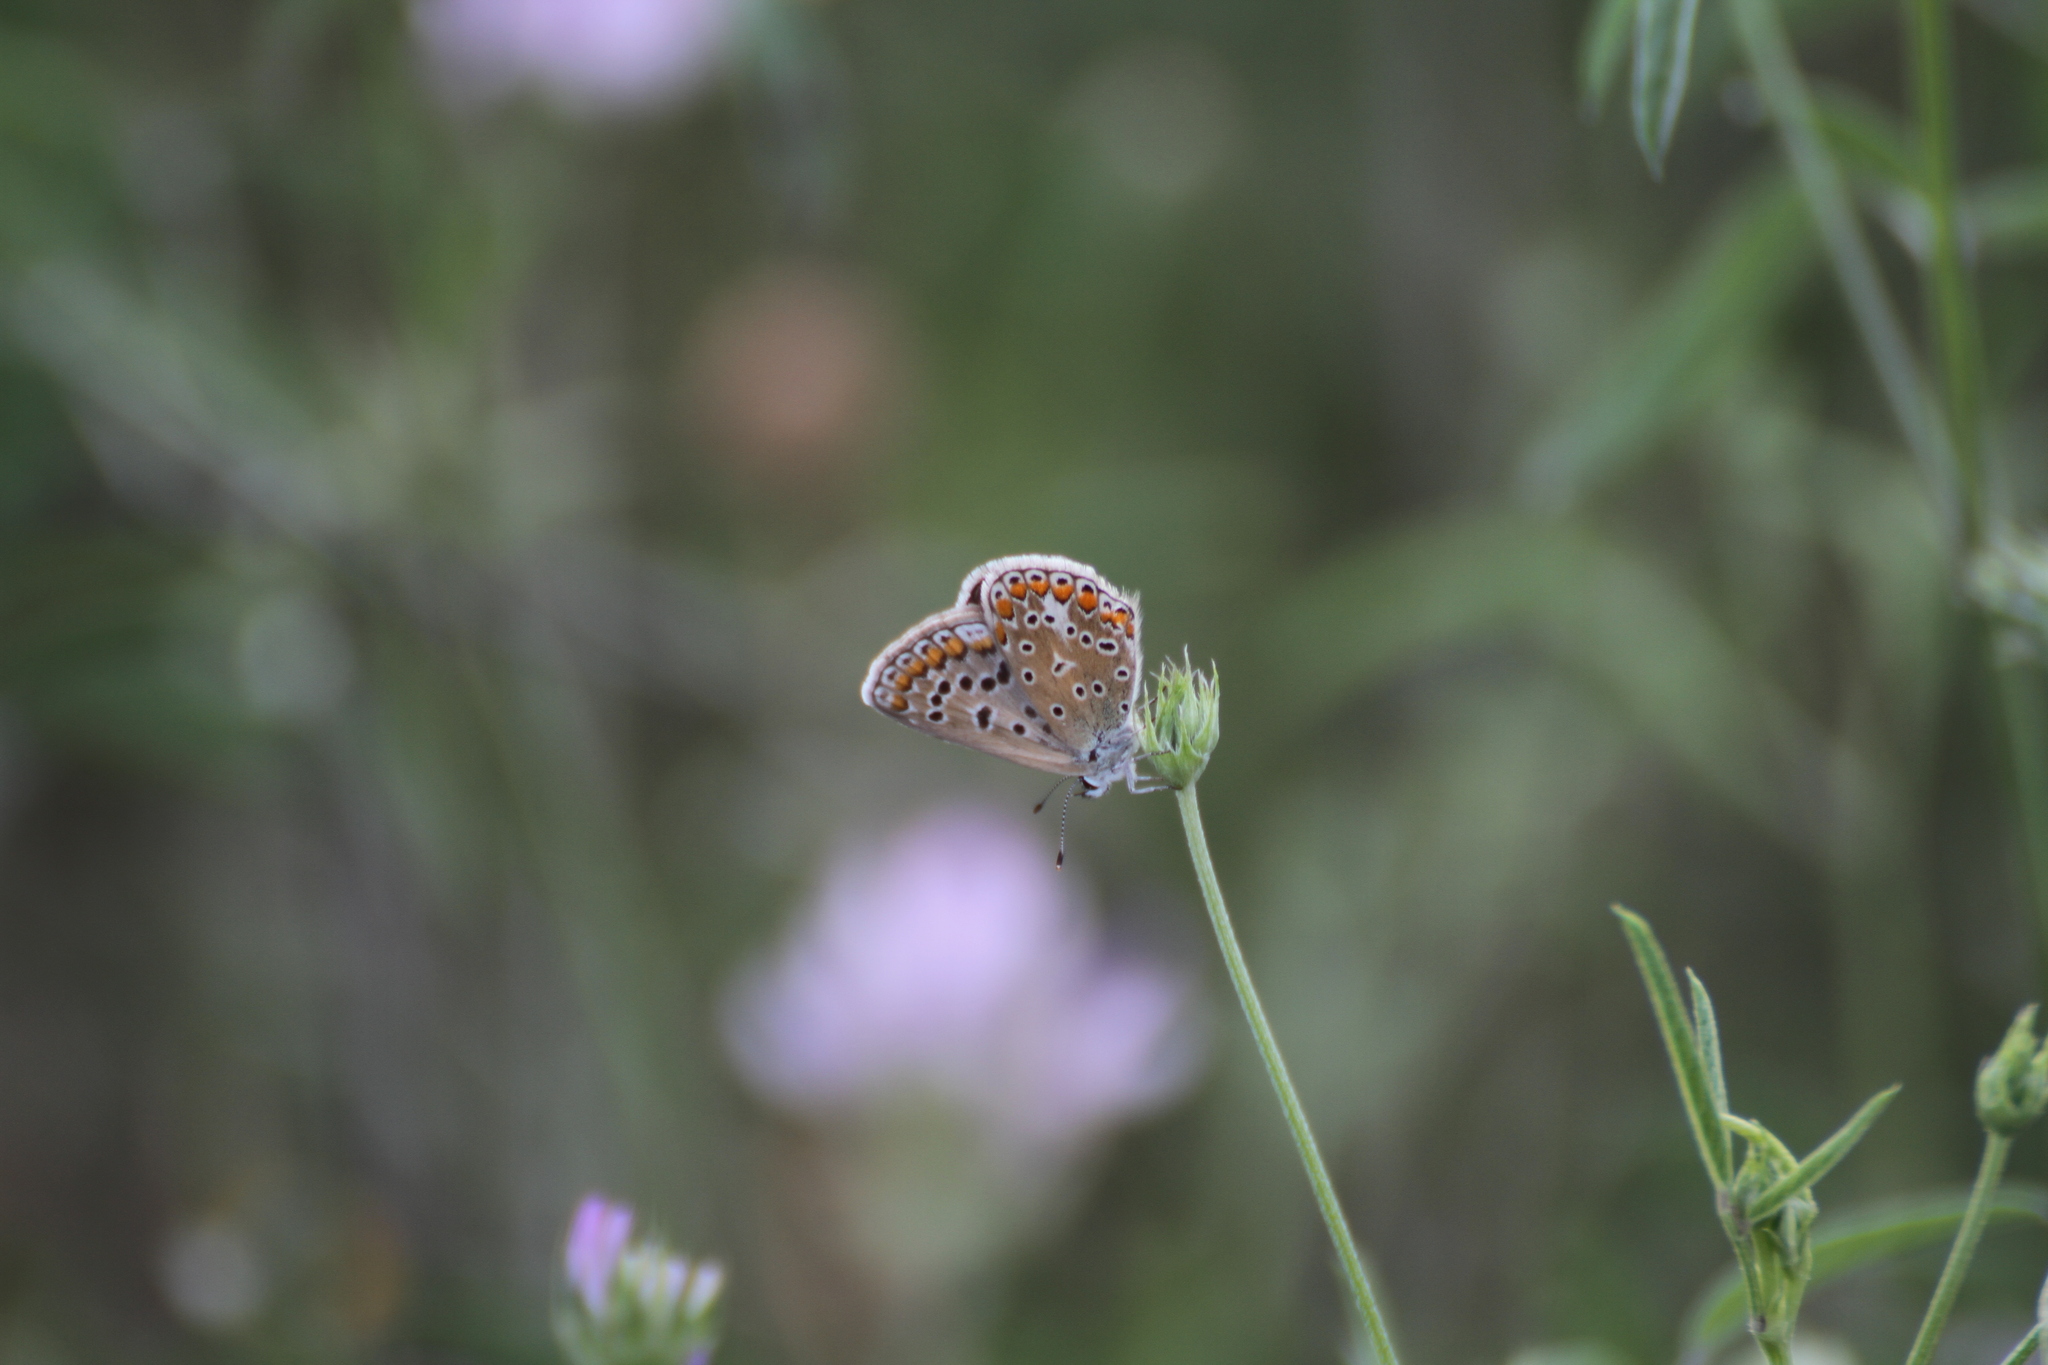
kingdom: Animalia
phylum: Arthropoda
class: Insecta
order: Lepidoptera
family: Lycaenidae
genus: Polyommatus
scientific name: Polyommatus icarus
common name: Common blue
